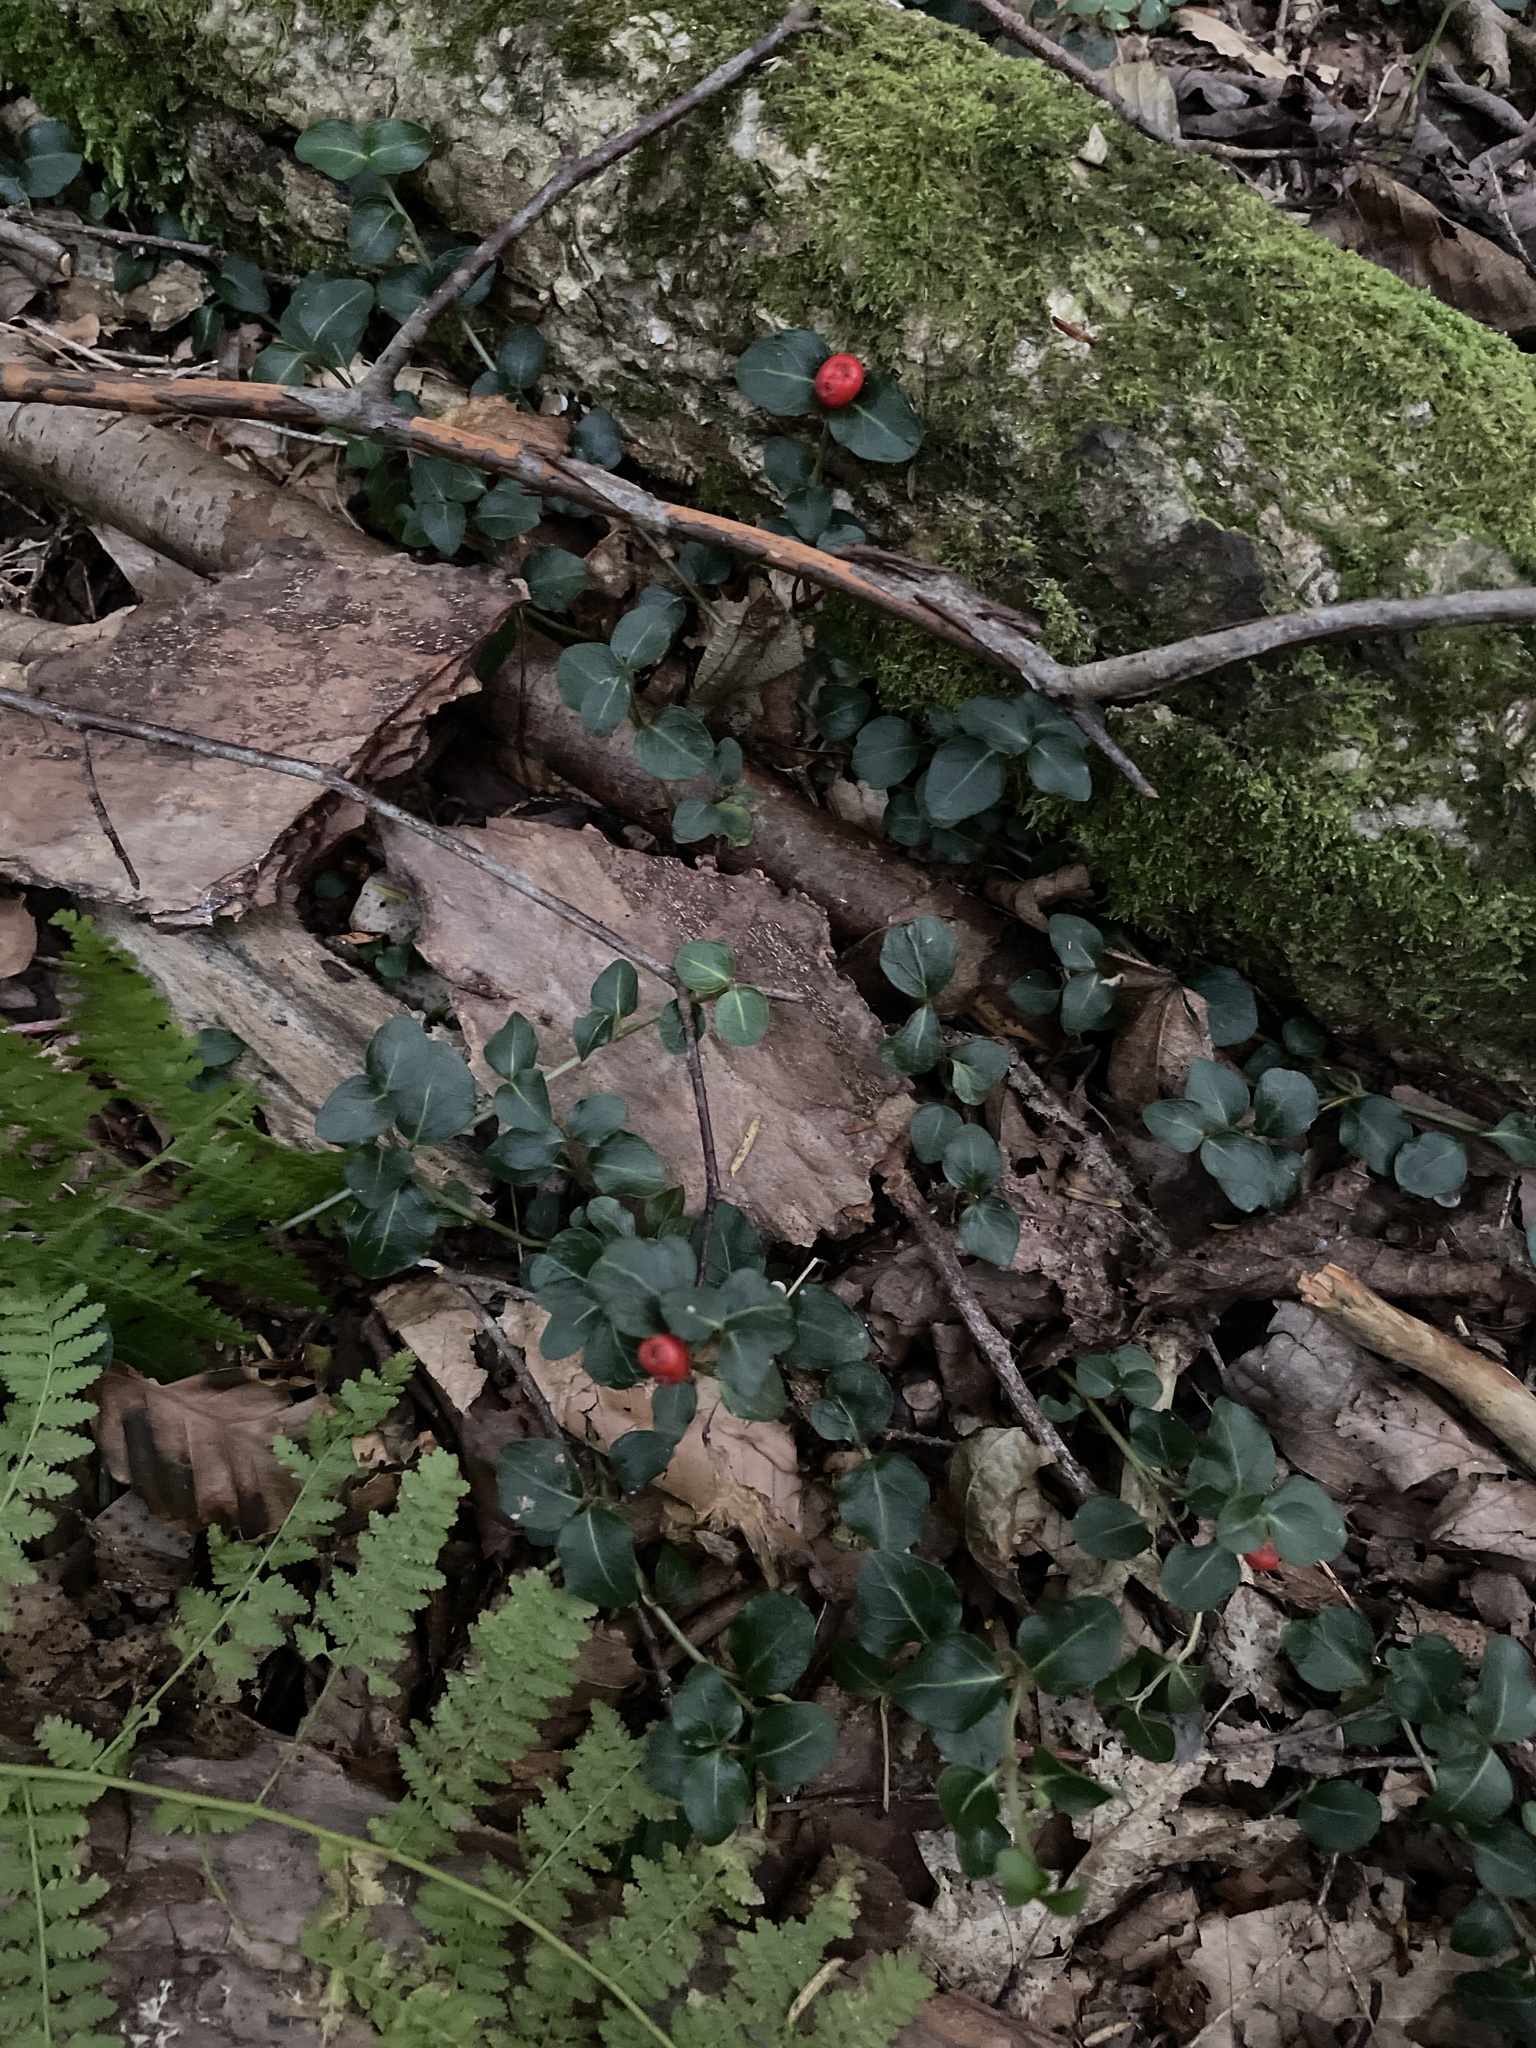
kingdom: Plantae
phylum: Tracheophyta
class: Magnoliopsida
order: Gentianales
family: Rubiaceae
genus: Mitchella
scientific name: Mitchella repens
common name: Partridge-berry
